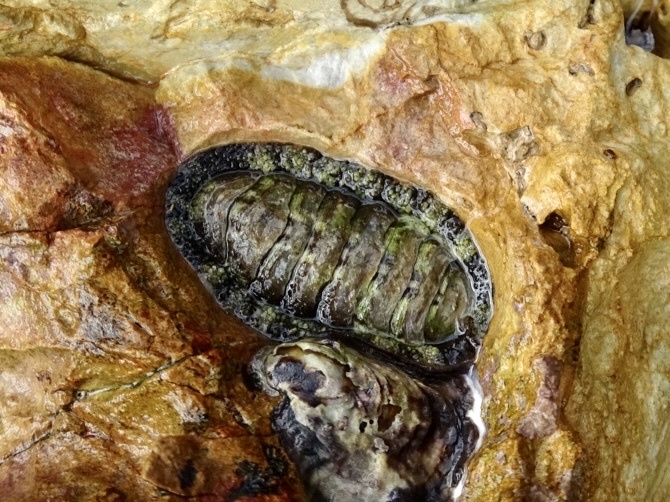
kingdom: Animalia
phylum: Mollusca
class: Polyplacophora
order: Chitonida
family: Chitonidae
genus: Liolophura
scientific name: Liolophura japonica
